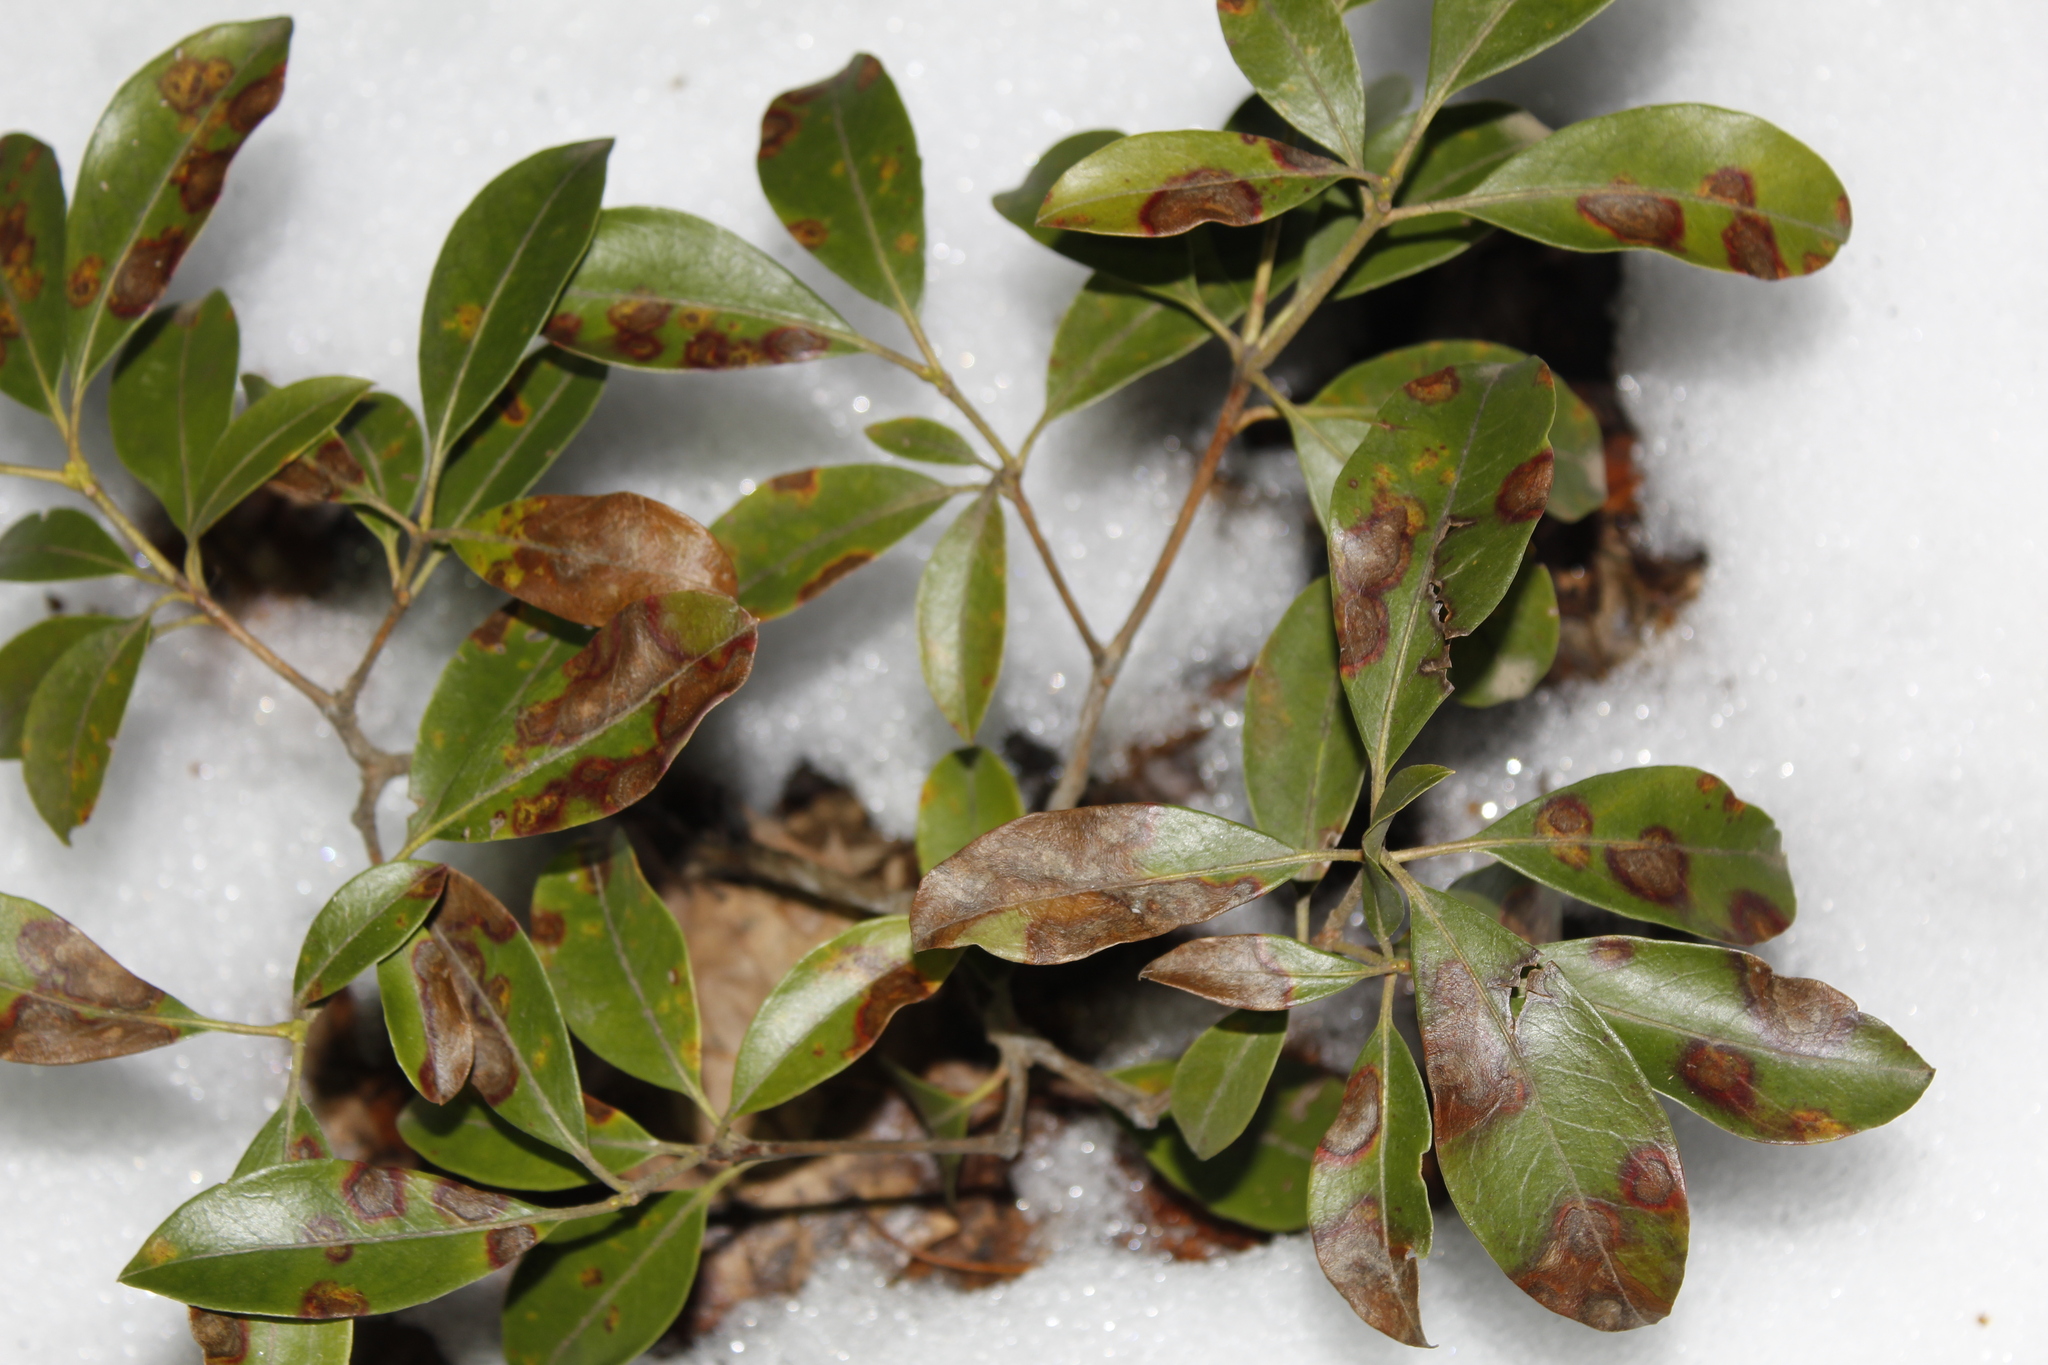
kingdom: Plantae
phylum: Tracheophyta
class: Magnoliopsida
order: Ericales
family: Ericaceae
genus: Kalmia
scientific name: Kalmia latifolia
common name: Mountain-laurel
